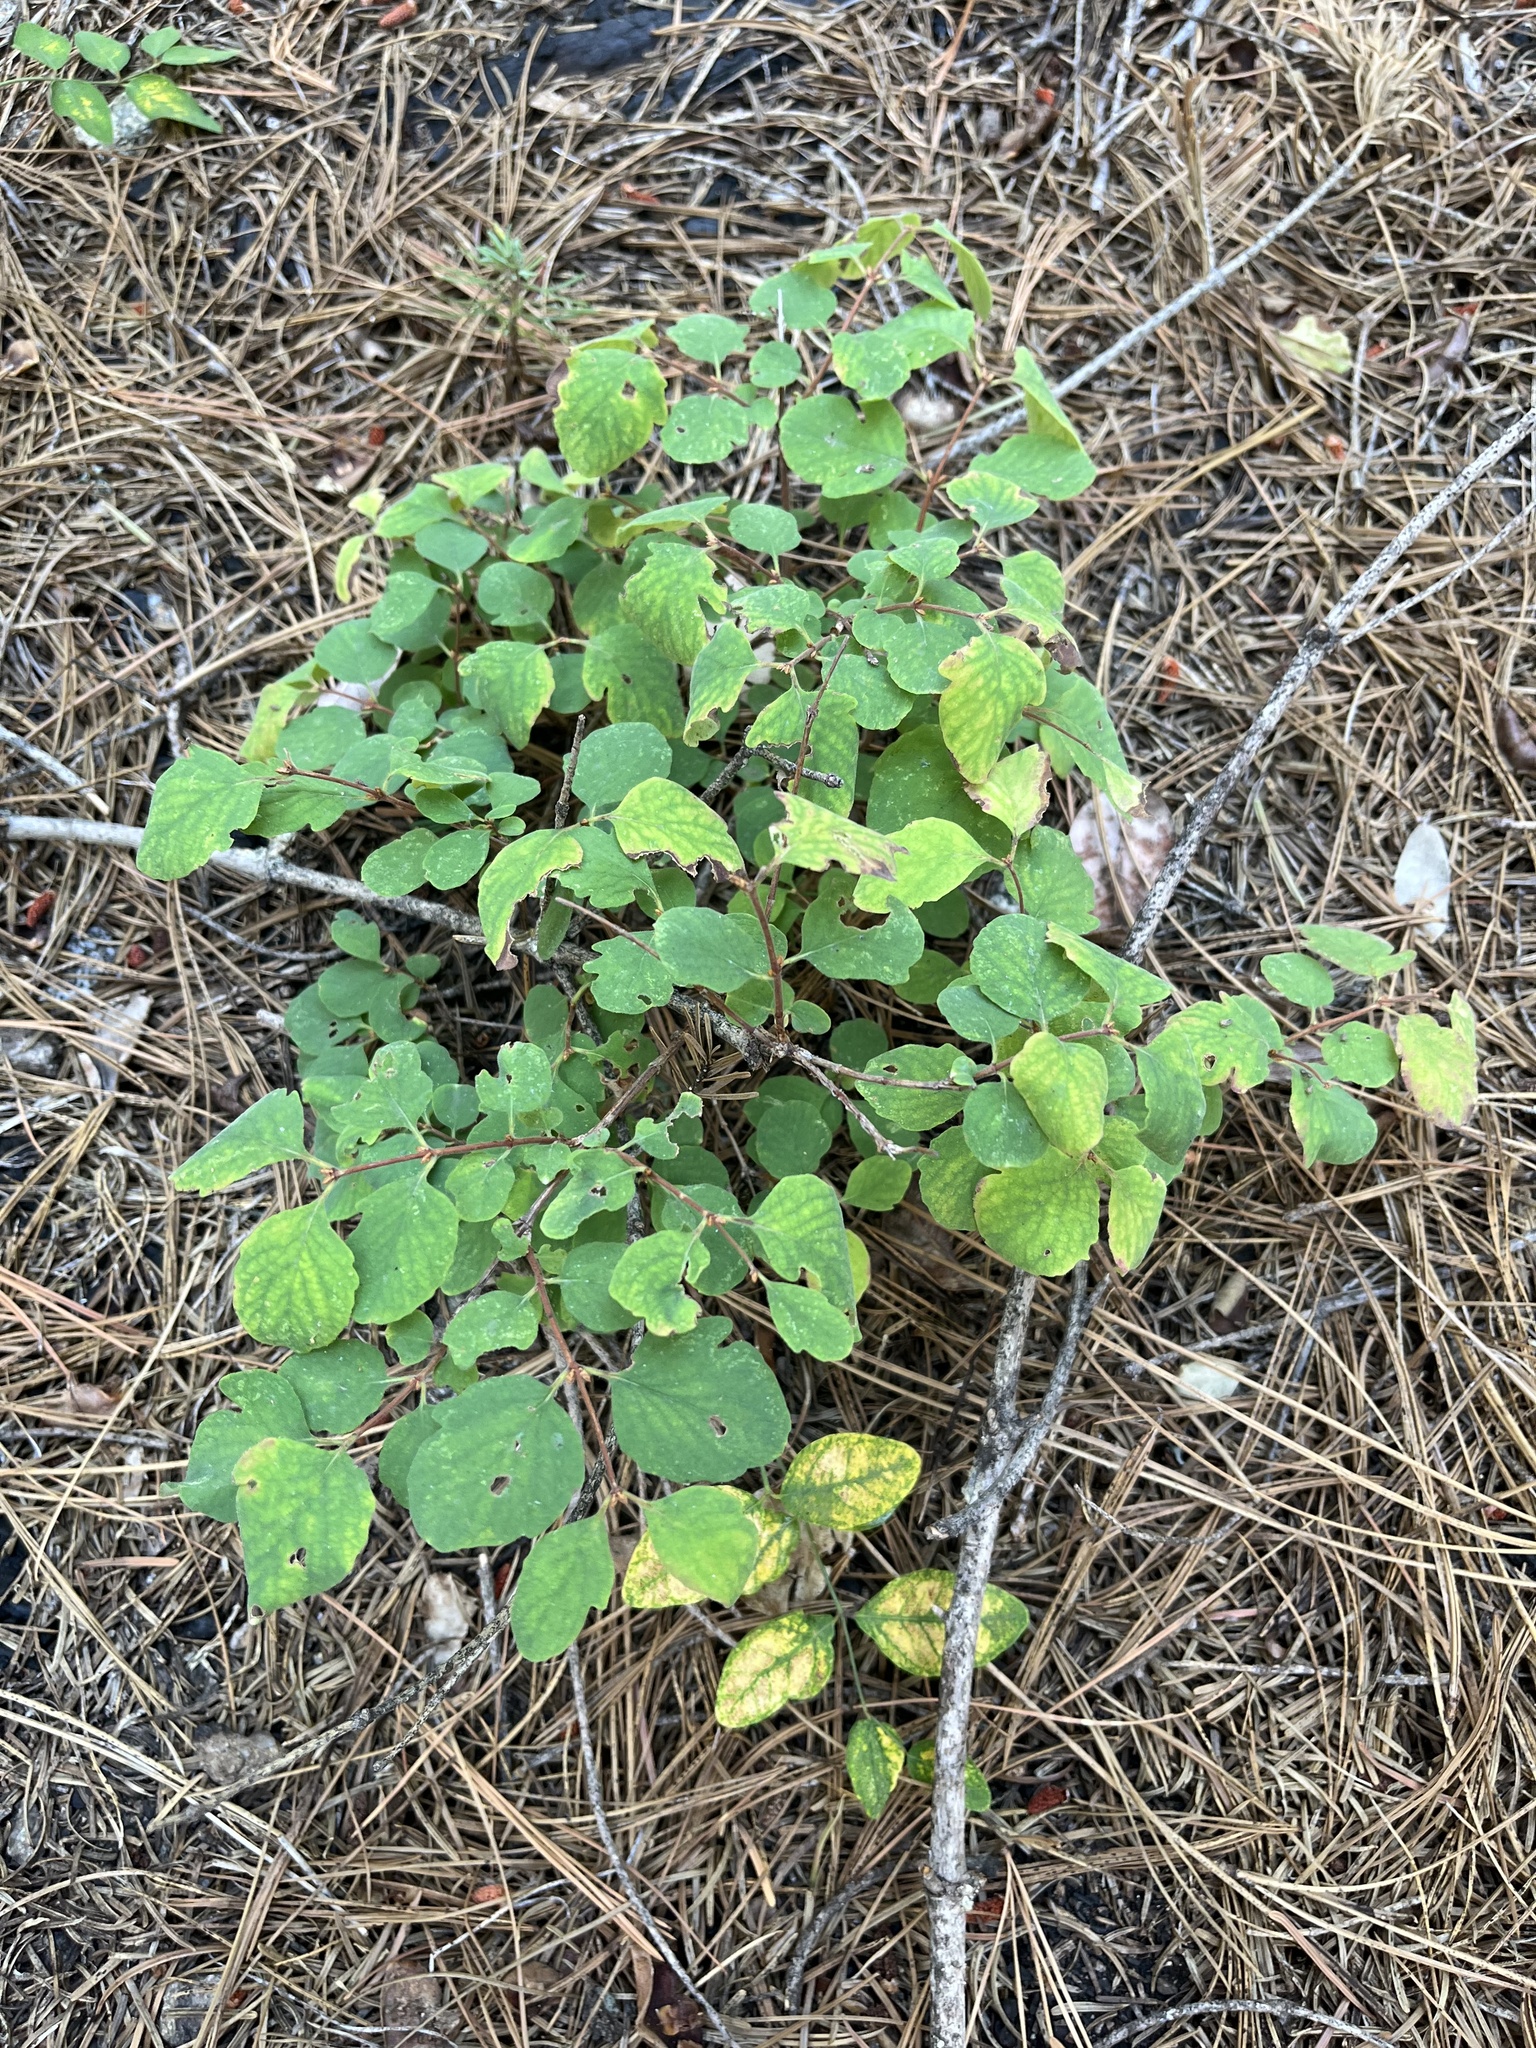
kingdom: Plantae
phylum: Tracheophyta
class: Magnoliopsida
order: Dipsacales
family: Caprifoliaceae
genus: Symphoricarpos
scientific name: Symphoricarpos mollis
